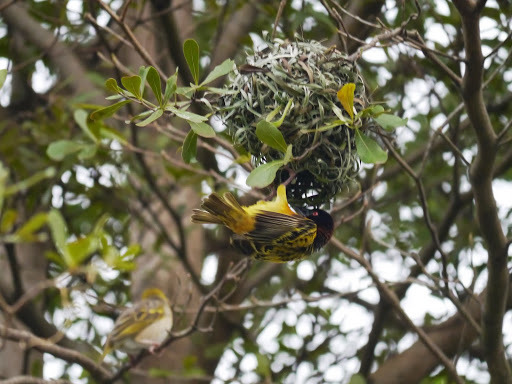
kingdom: Animalia
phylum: Chordata
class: Aves
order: Passeriformes
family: Ploceidae
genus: Ploceus
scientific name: Ploceus cucullatus
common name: Village weaver
